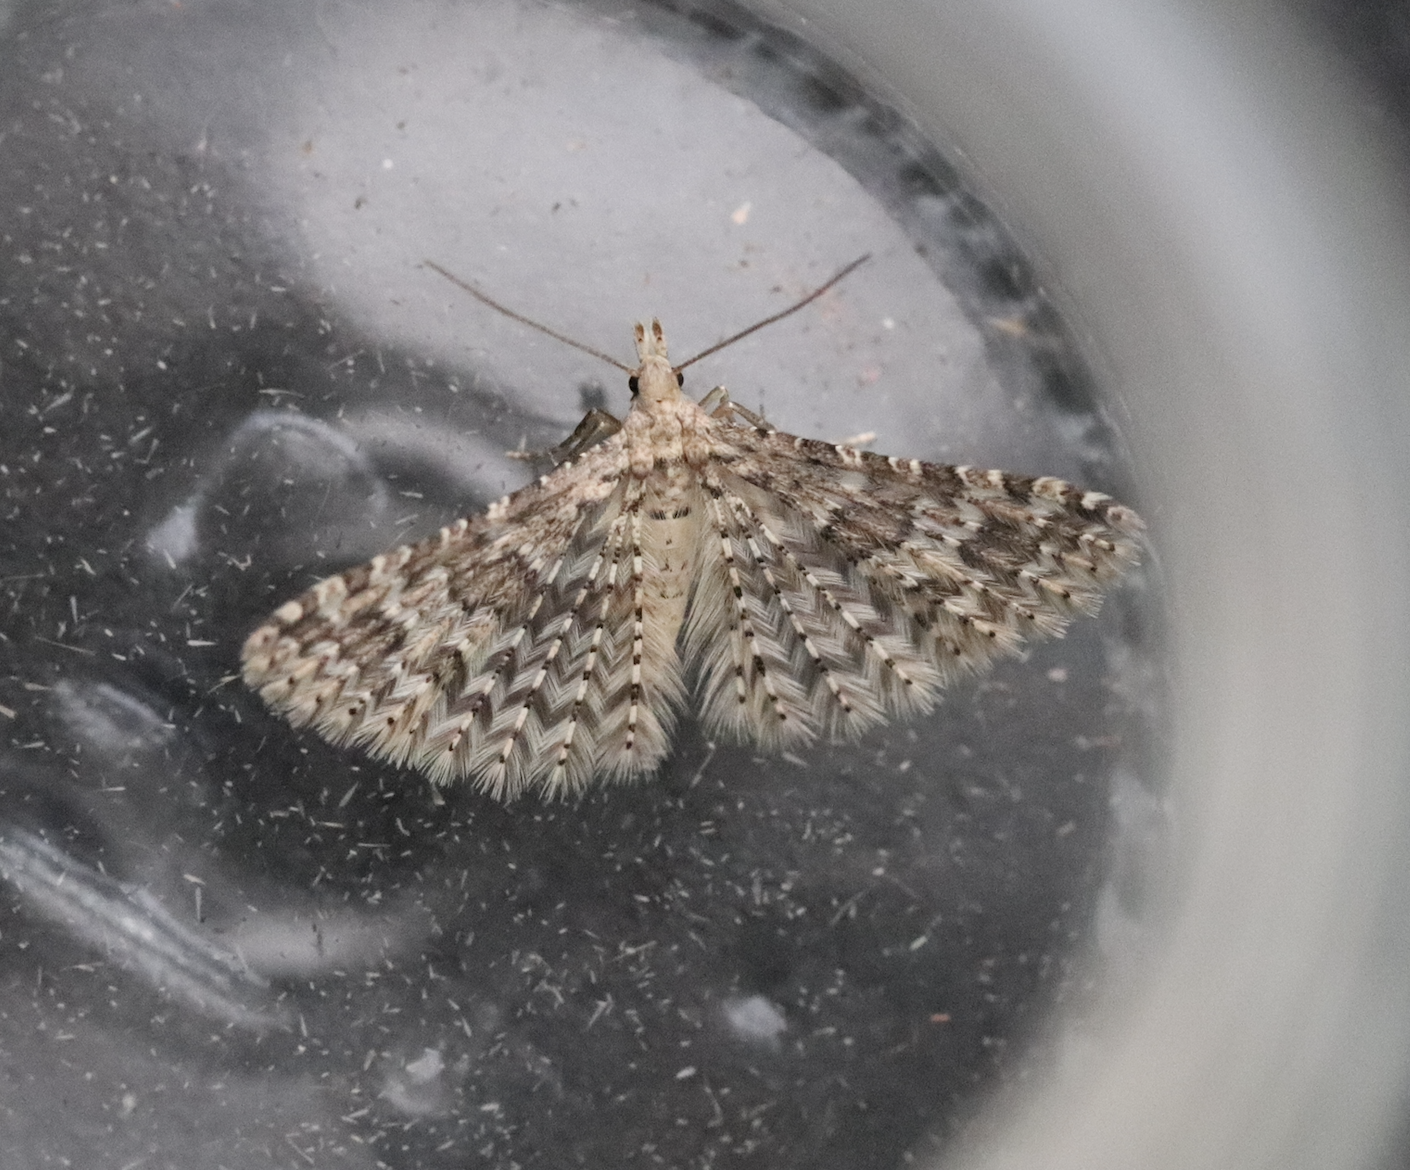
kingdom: Animalia
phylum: Arthropoda
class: Insecta
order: Lepidoptera
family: Alucitidae
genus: Alucita
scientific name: Alucita hexadactyla
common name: Twenty-plume moth
